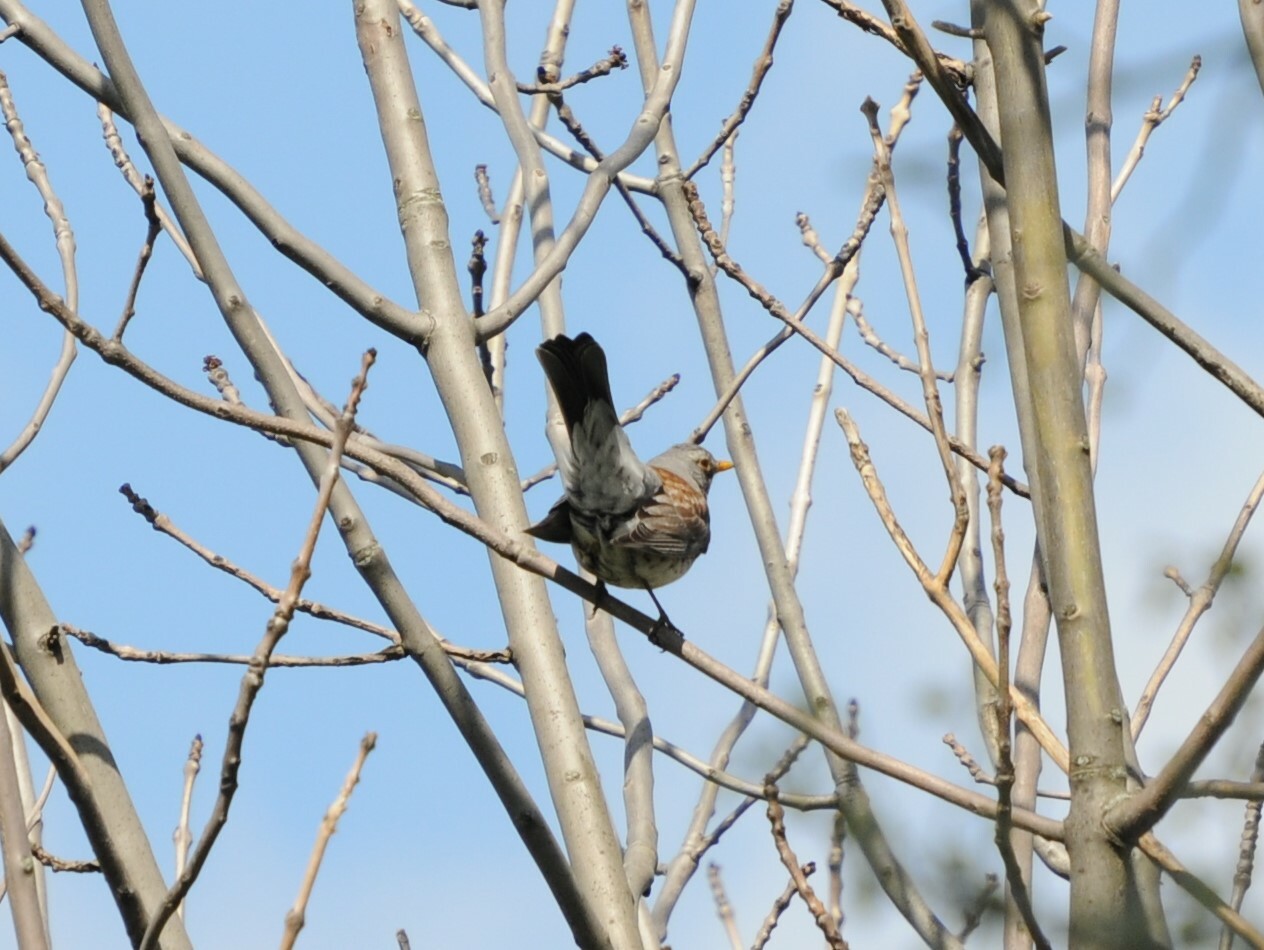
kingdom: Animalia
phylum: Chordata
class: Aves
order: Passeriformes
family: Turdidae
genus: Turdus
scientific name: Turdus pilaris
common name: Fieldfare
